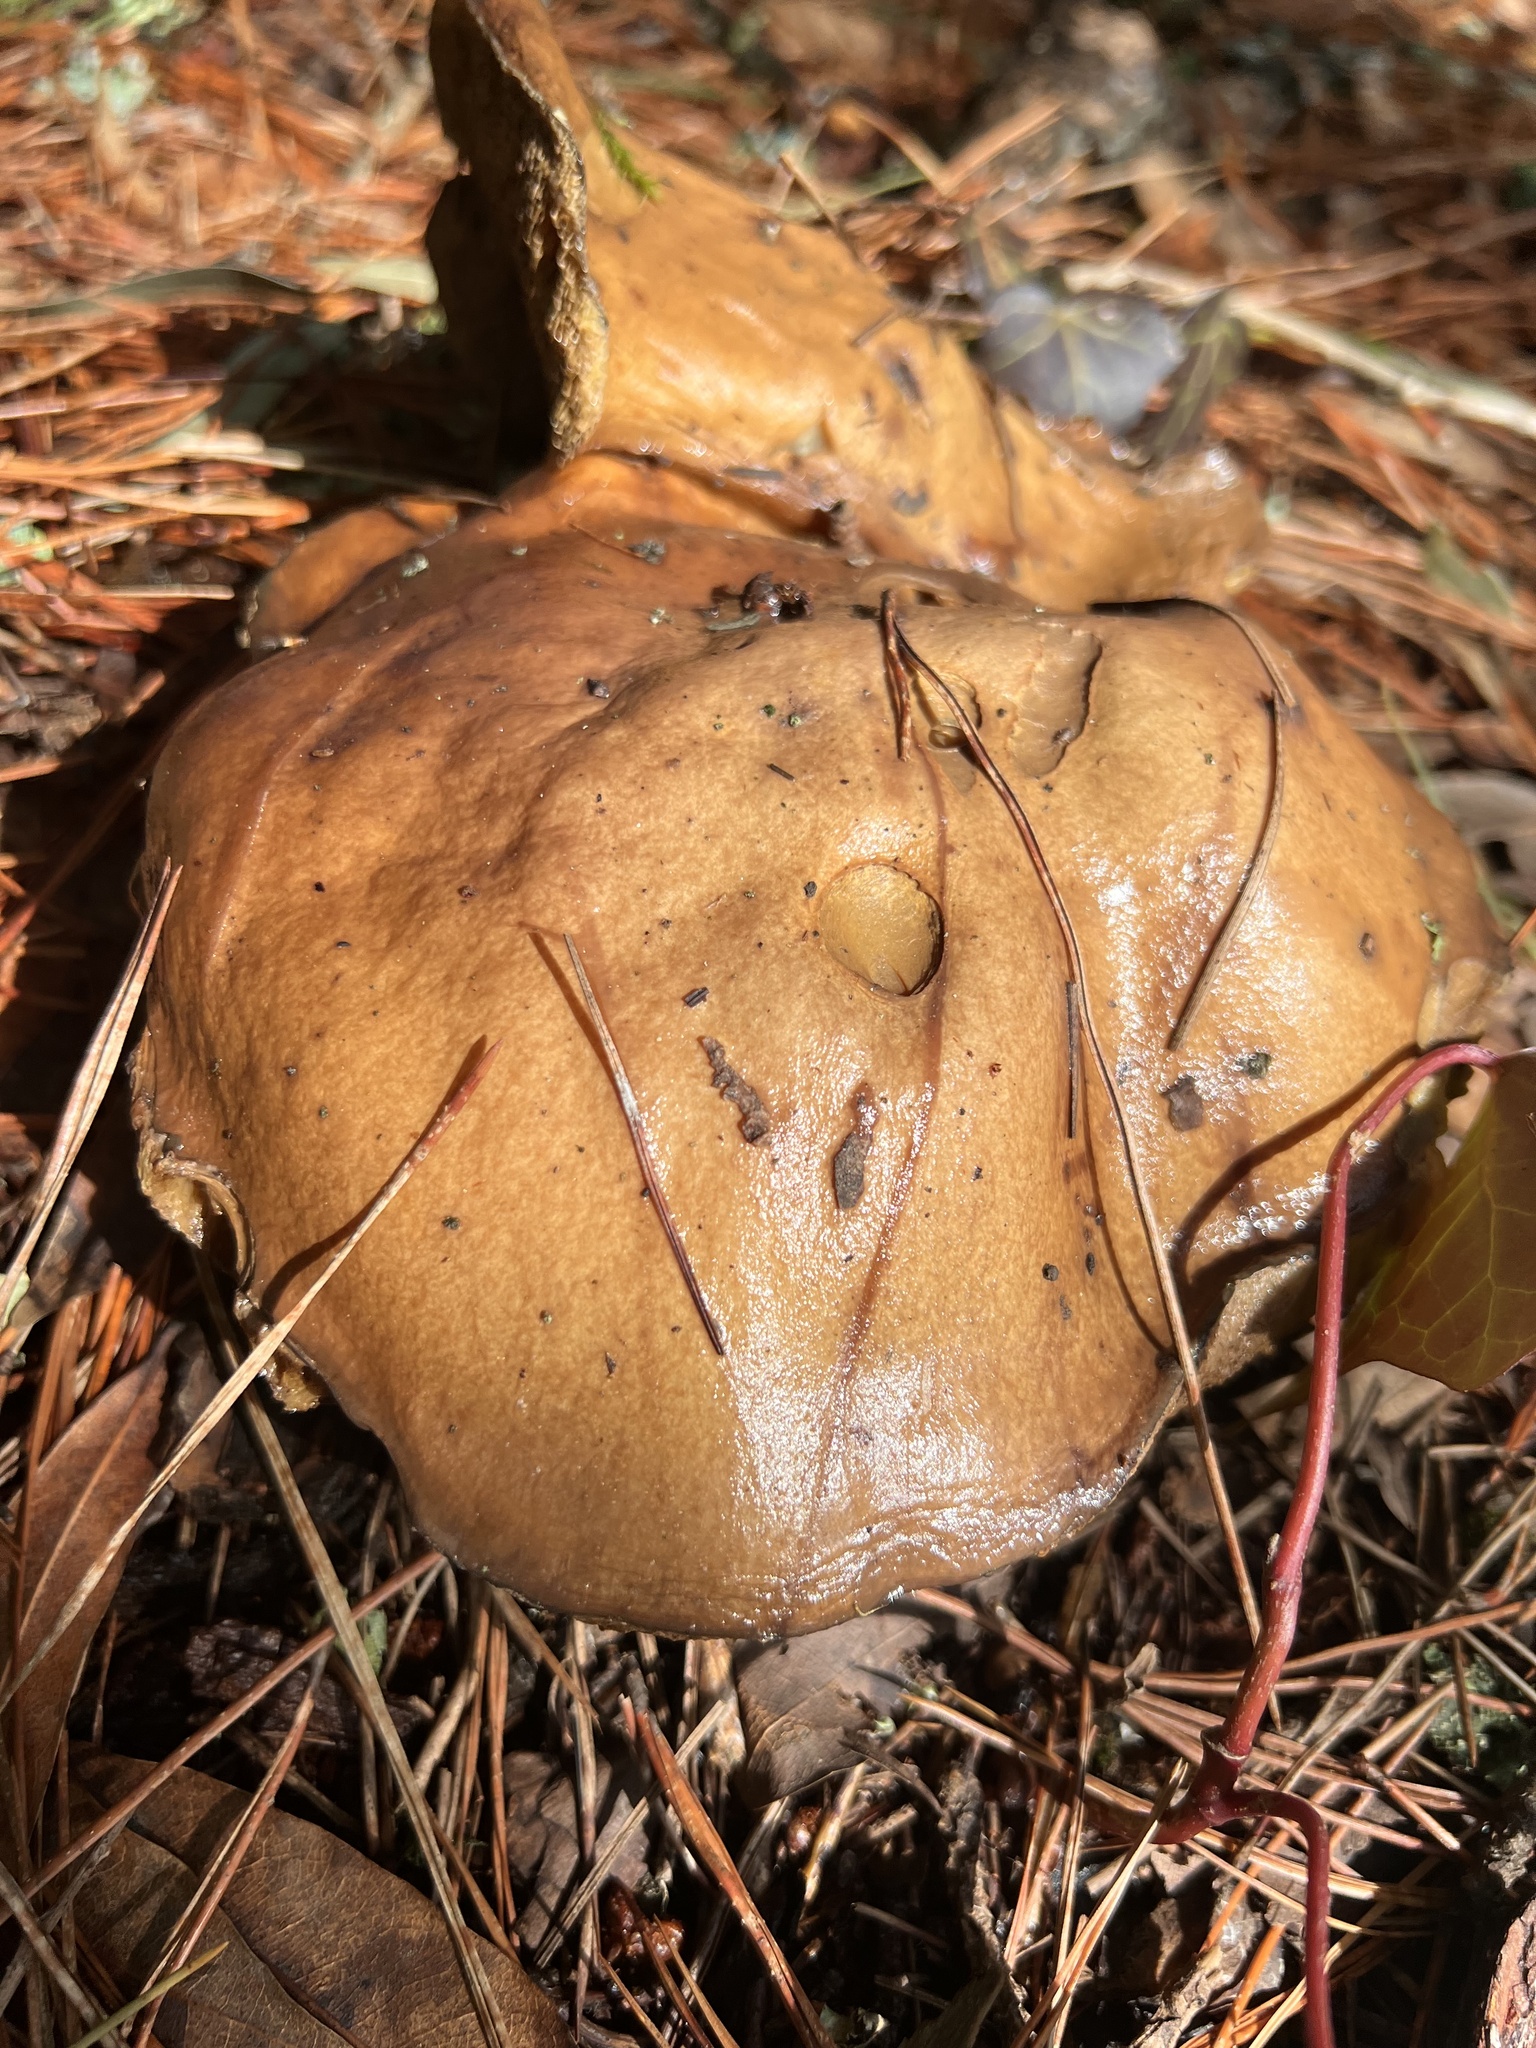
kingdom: Fungi
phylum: Basidiomycota
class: Agaricomycetes
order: Boletales
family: Suillaceae
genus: Suillus
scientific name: Suillus pungens
